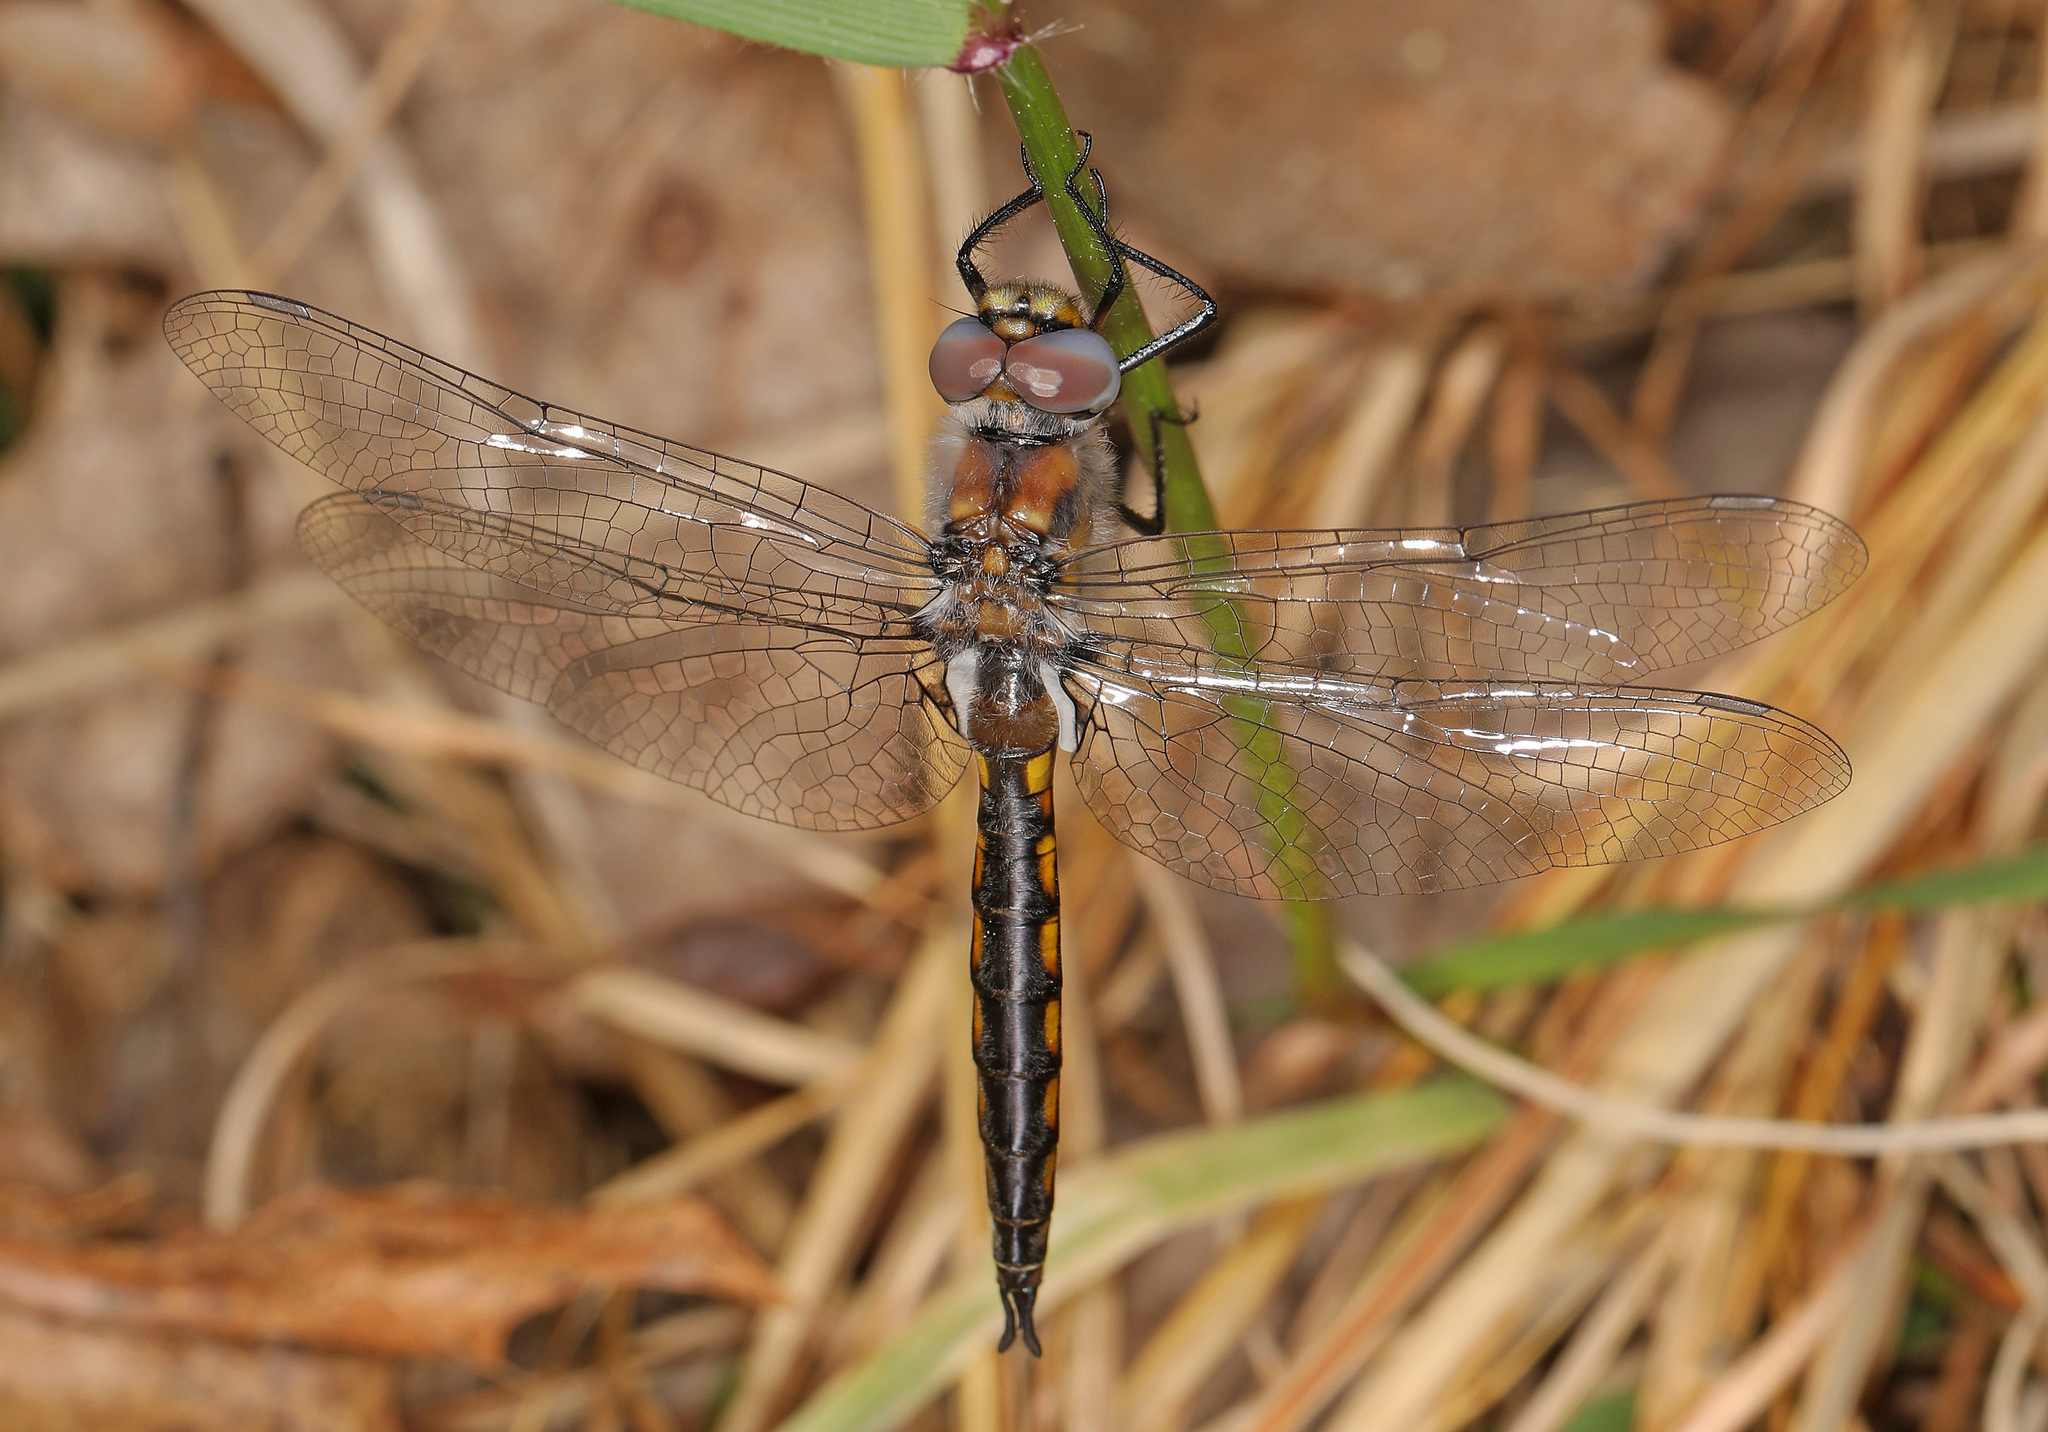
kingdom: Animalia
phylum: Arthropoda
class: Insecta
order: Odonata
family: Corduliidae
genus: Epitheca
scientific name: Epitheca cynosura
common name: Common baskettail
